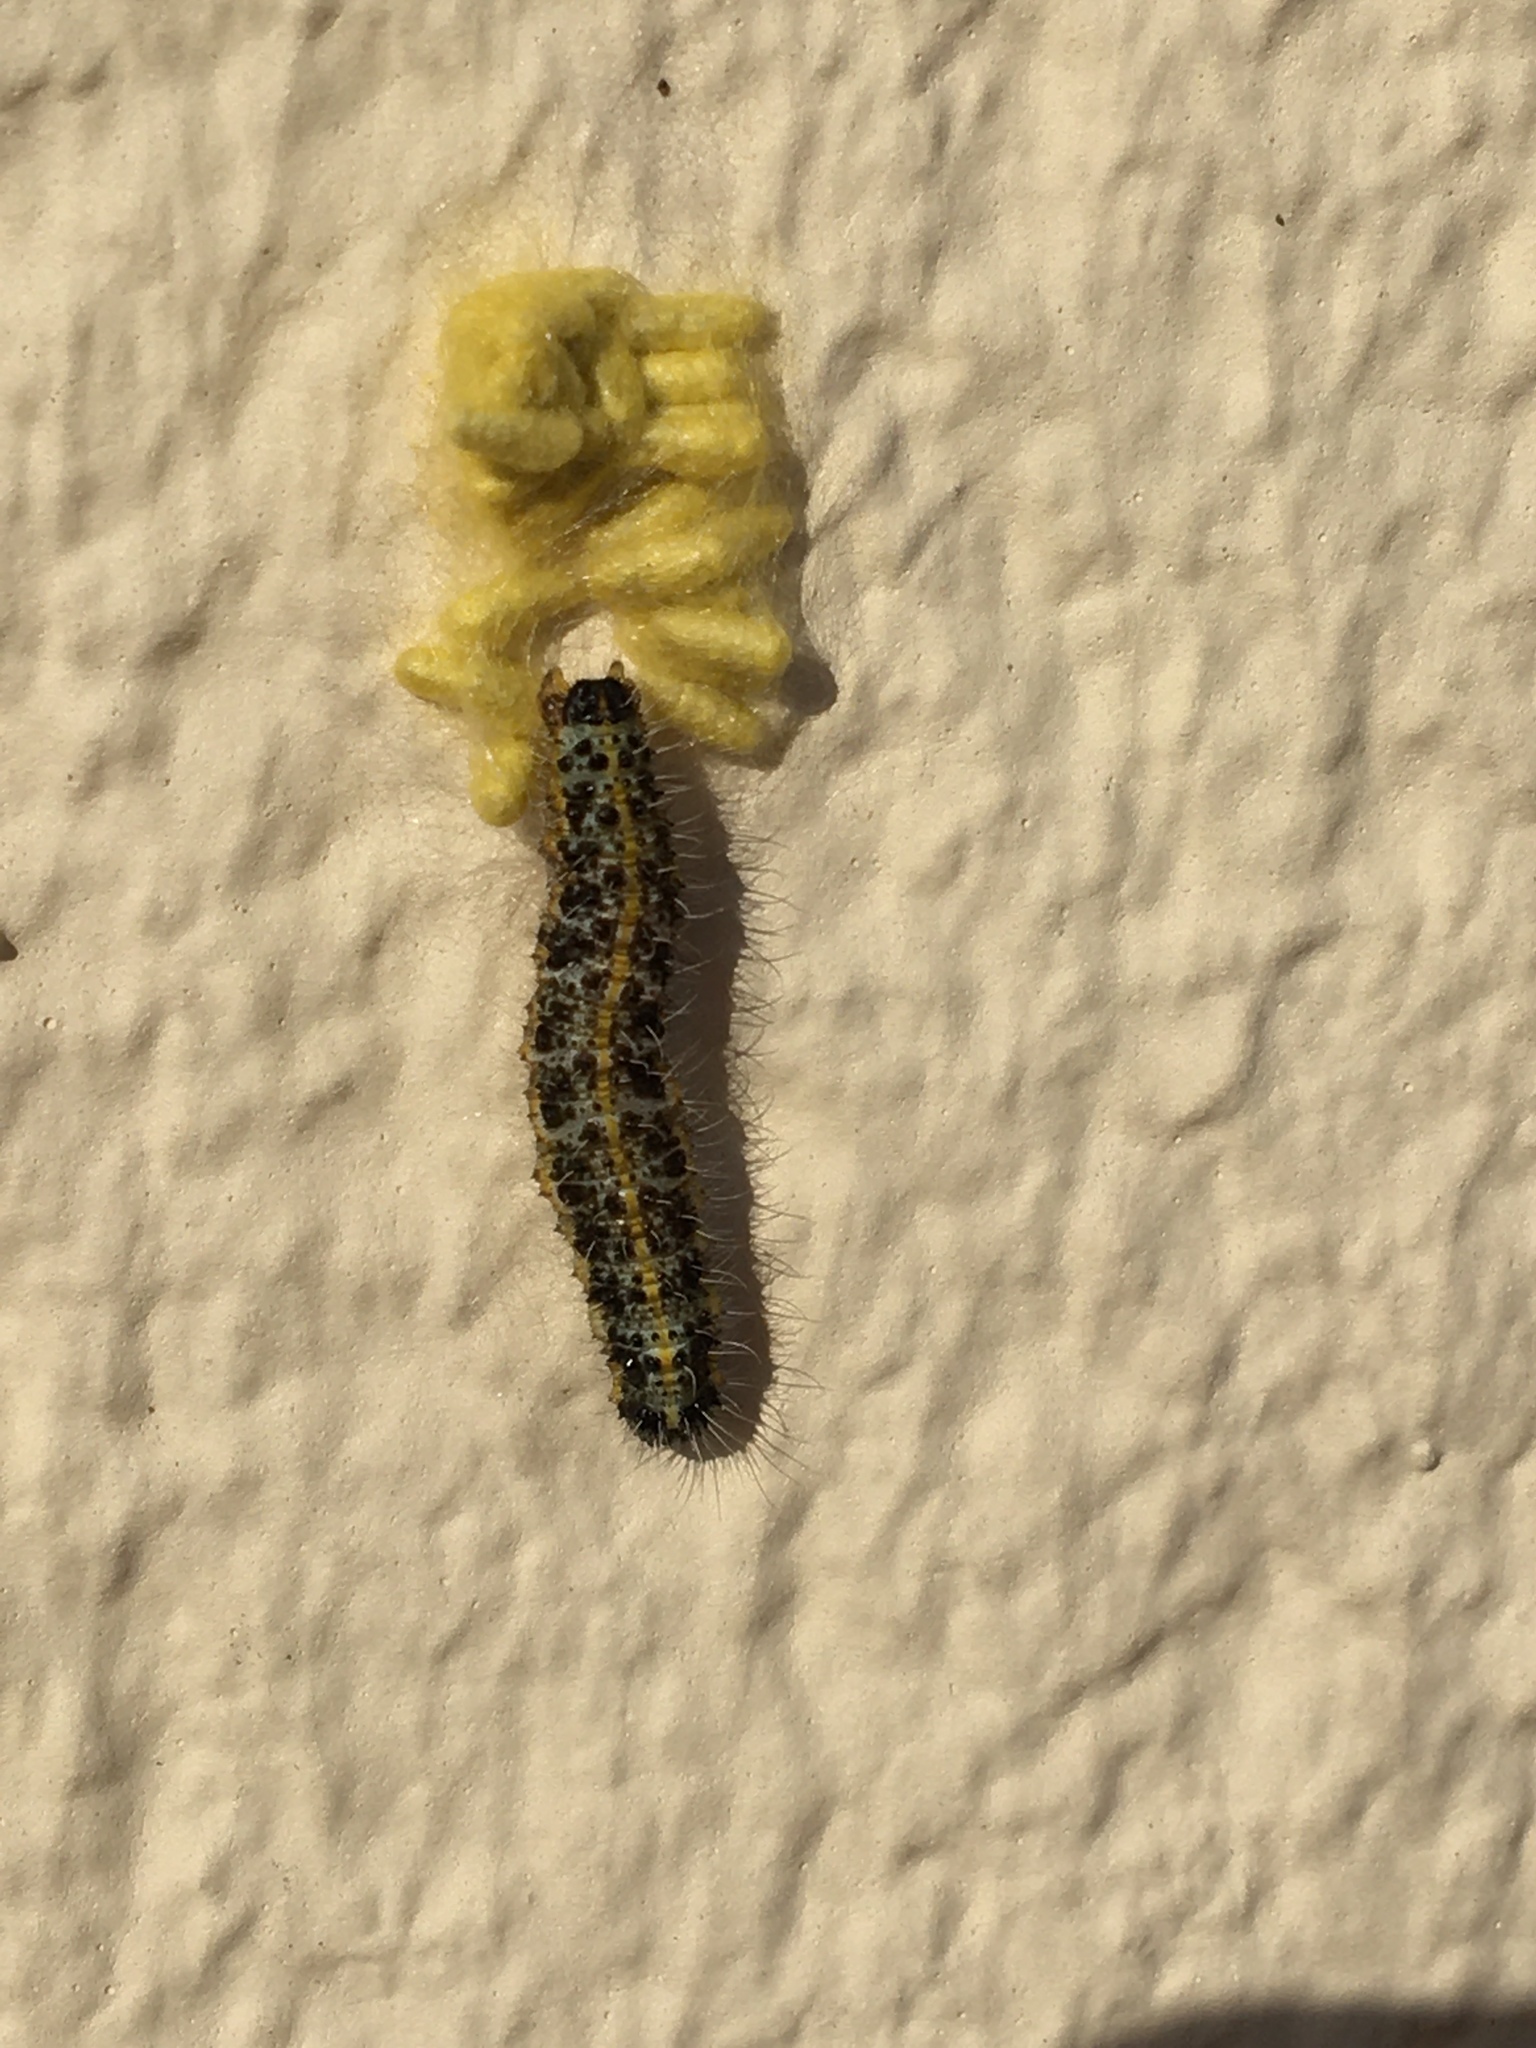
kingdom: Animalia
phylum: Arthropoda
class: Insecta
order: Lepidoptera
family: Pieridae
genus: Pieris
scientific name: Pieris brassicae
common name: Large white
